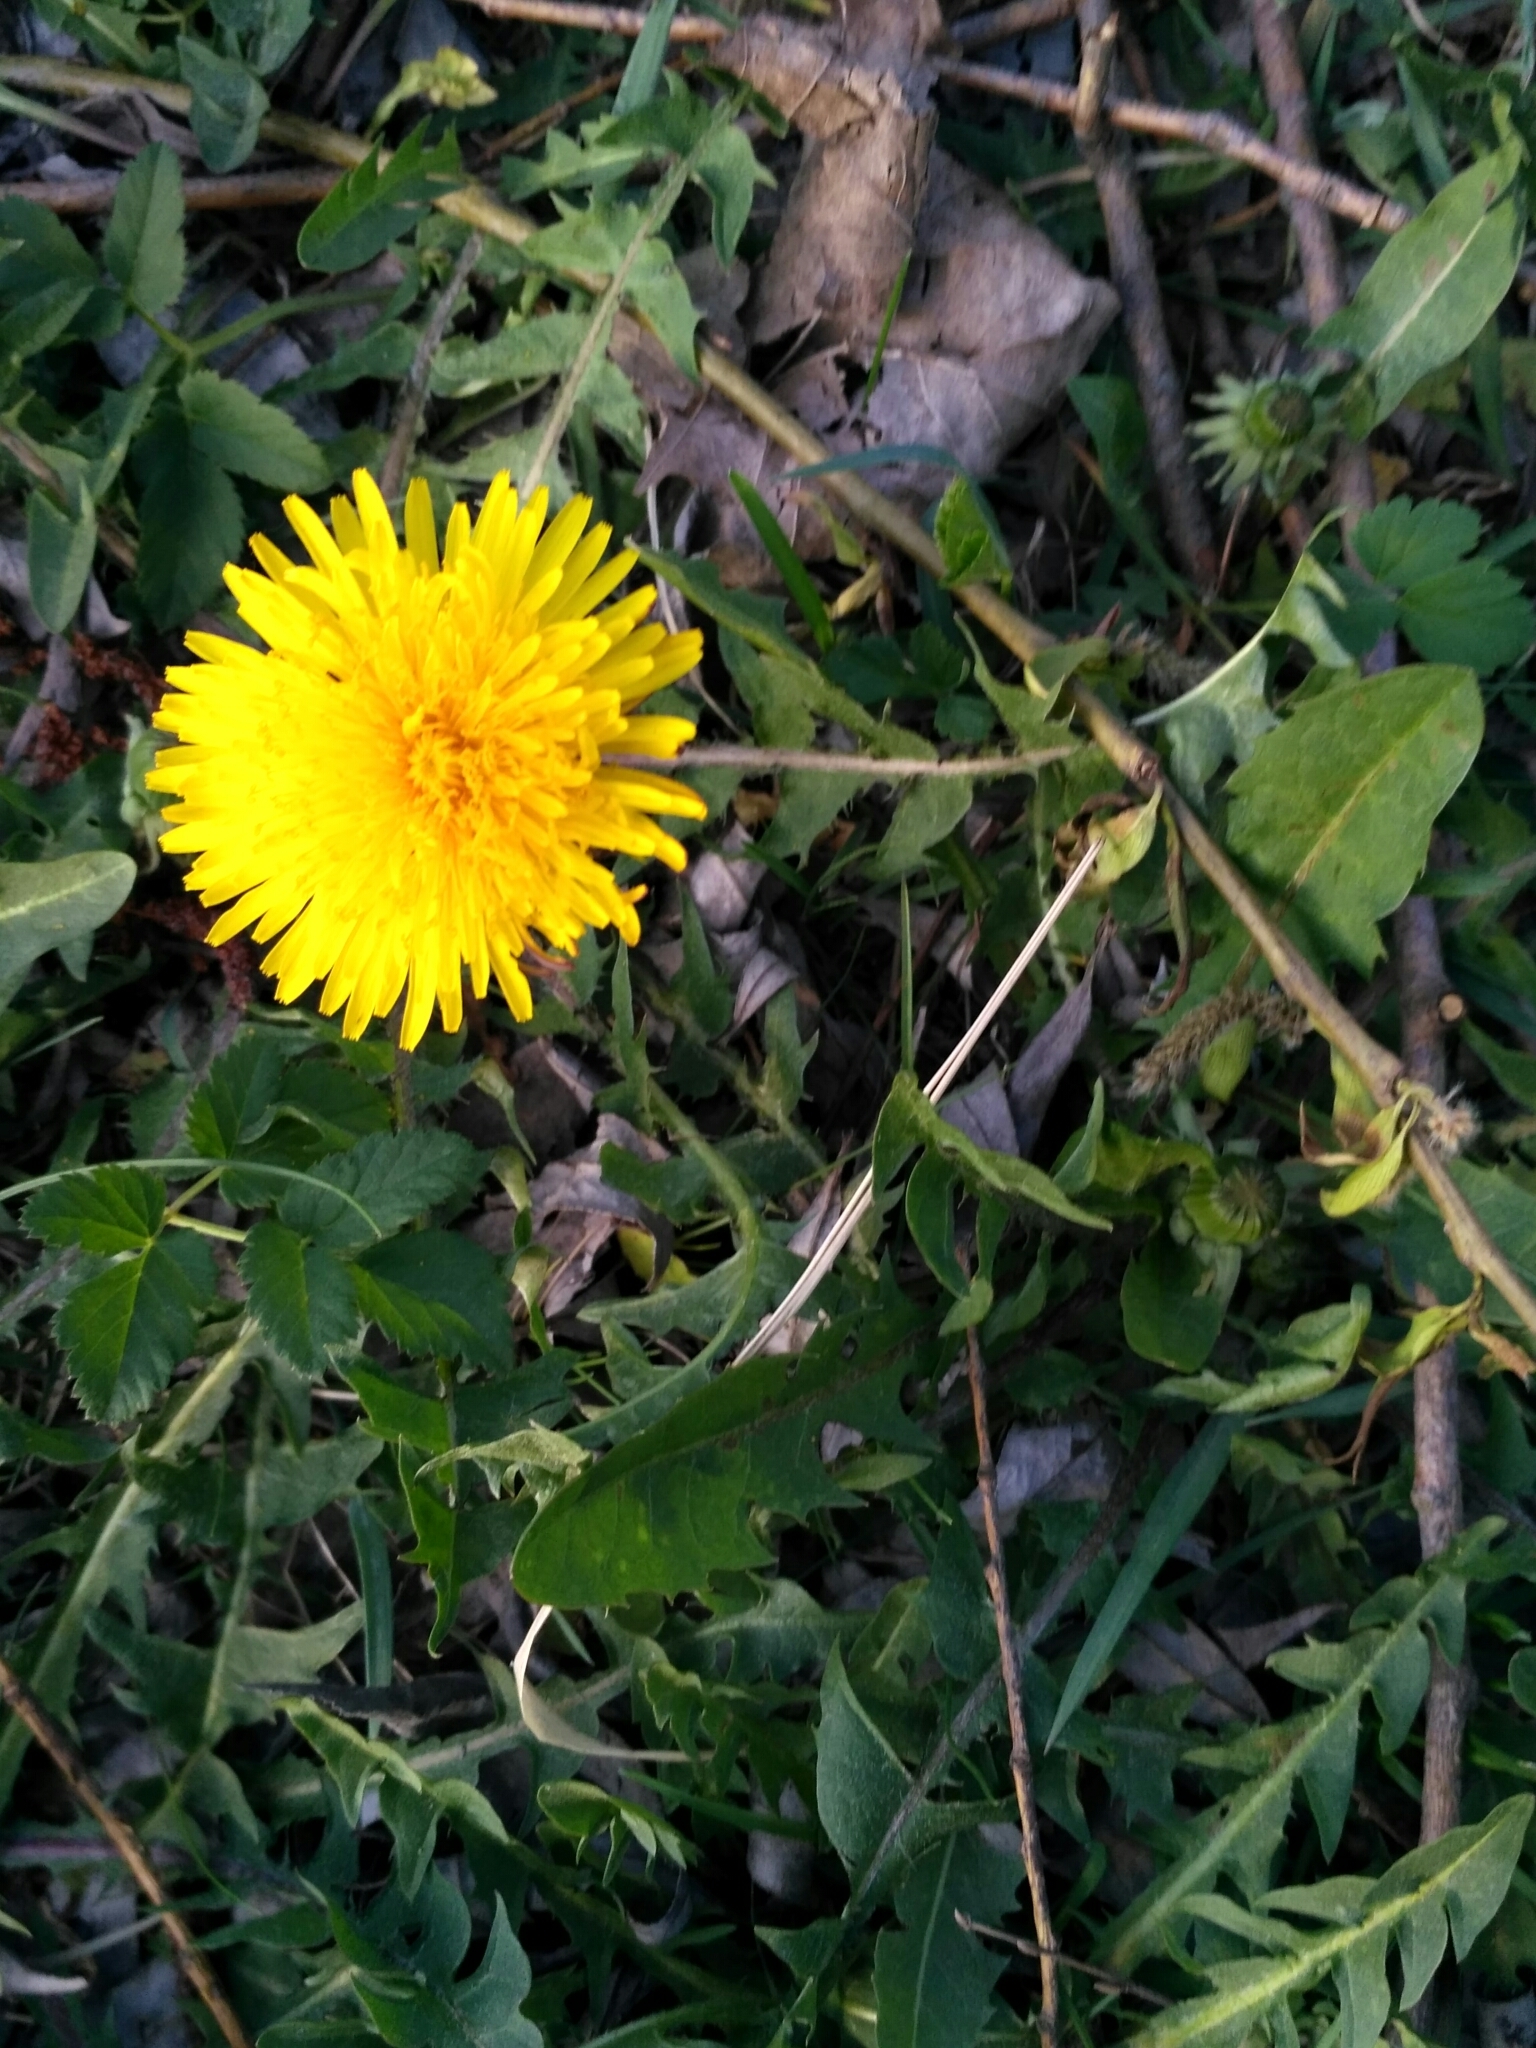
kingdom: Plantae
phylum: Tracheophyta
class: Magnoliopsida
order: Asterales
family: Asteraceae
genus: Taraxacum
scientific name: Taraxacum officinale
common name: Common dandelion
